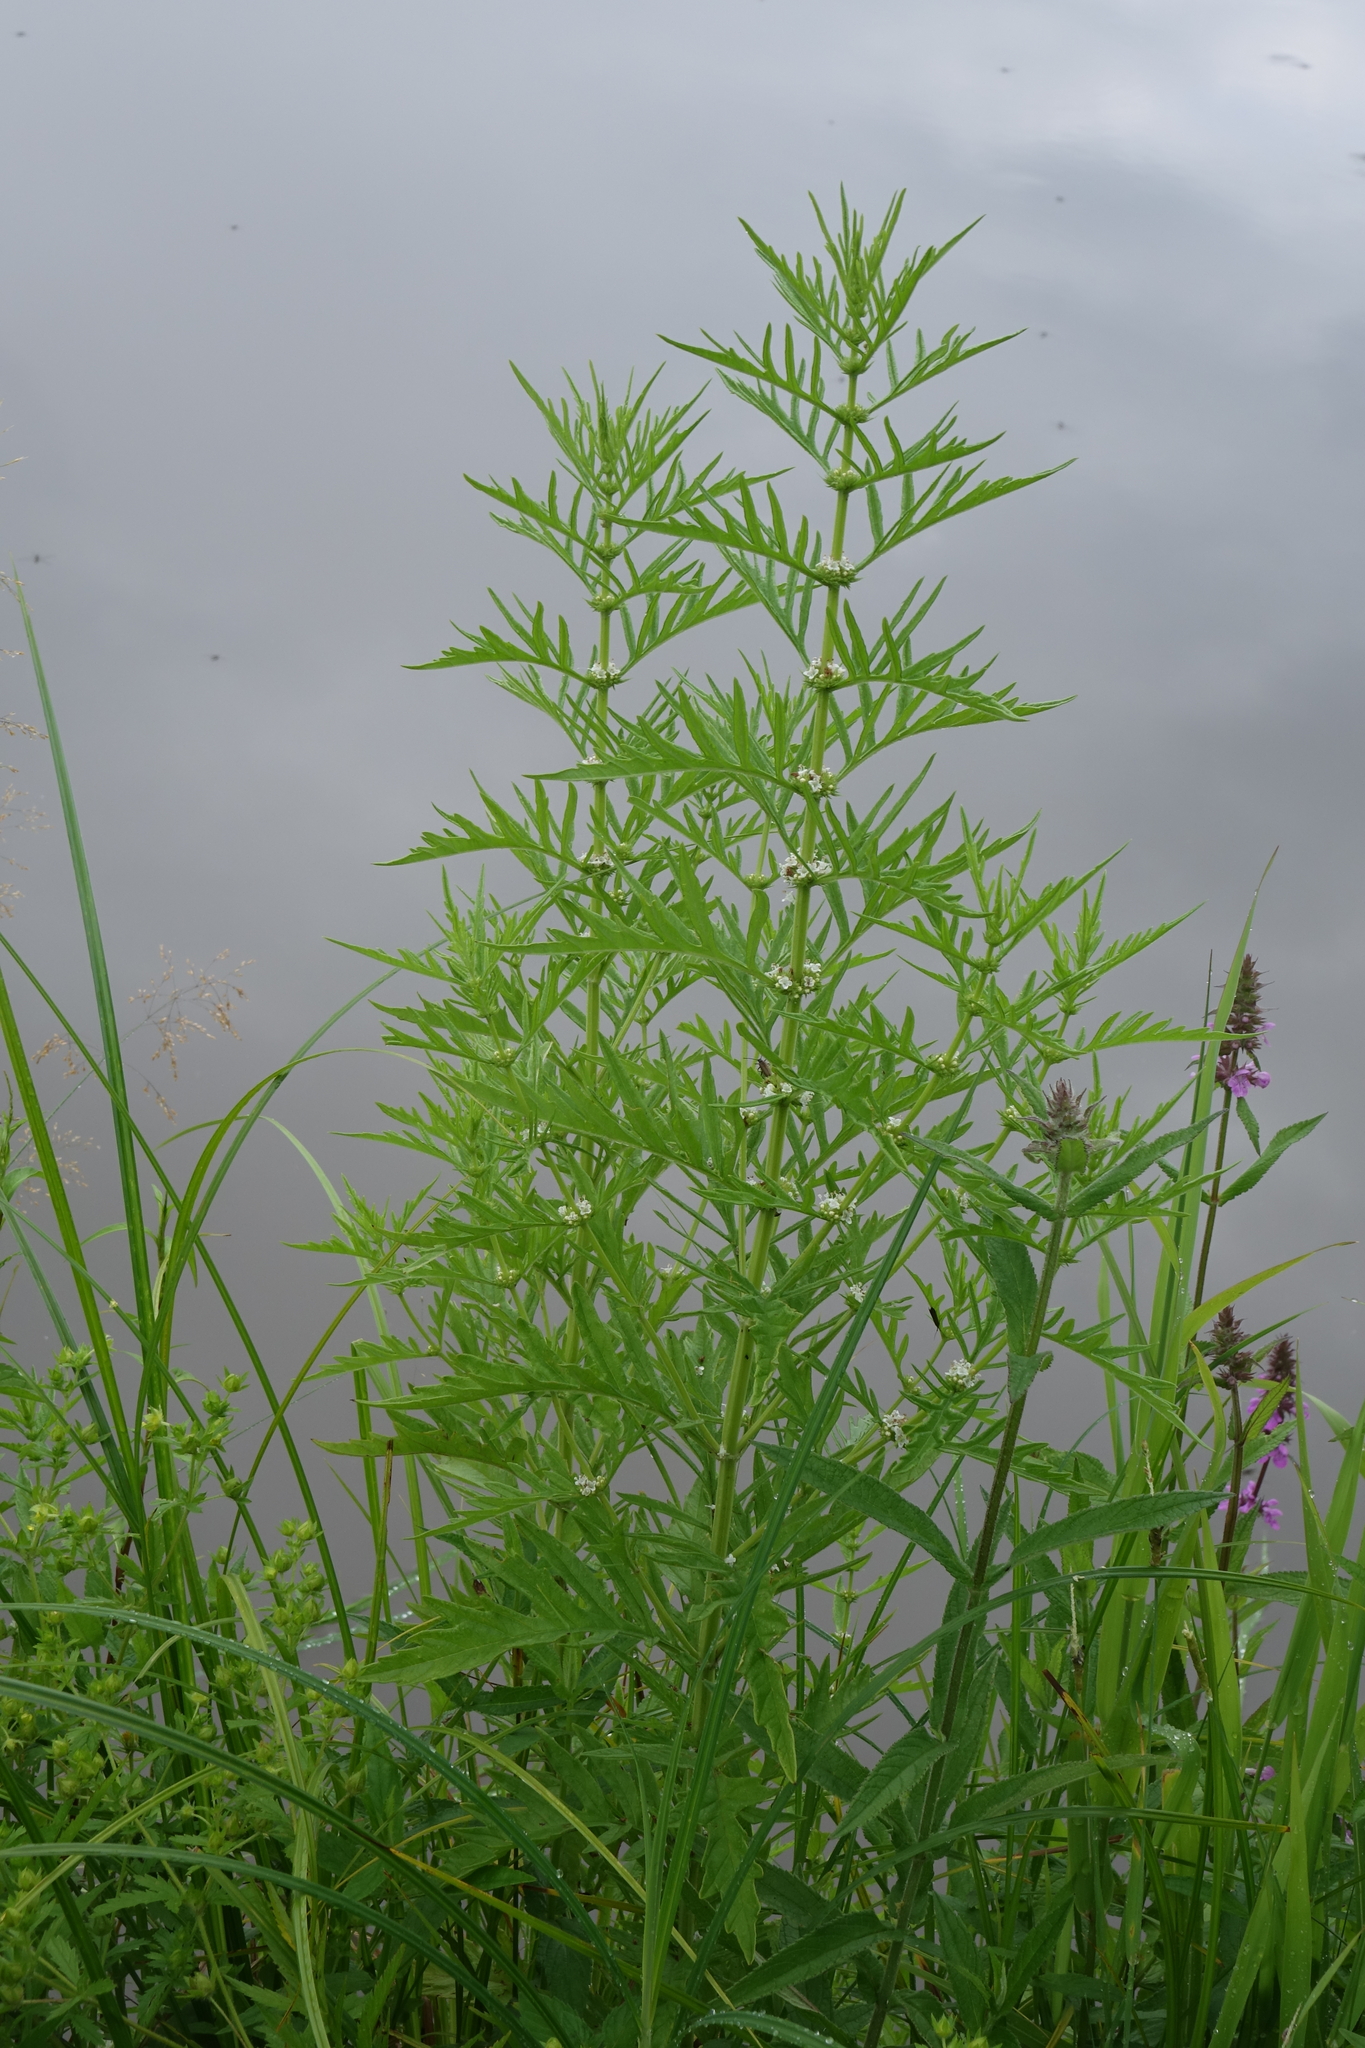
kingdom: Plantae
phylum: Tracheophyta
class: Magnoliopsida
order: Lamiales
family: Lamiaceae
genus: Lycopus
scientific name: Lycopus exaltatus
